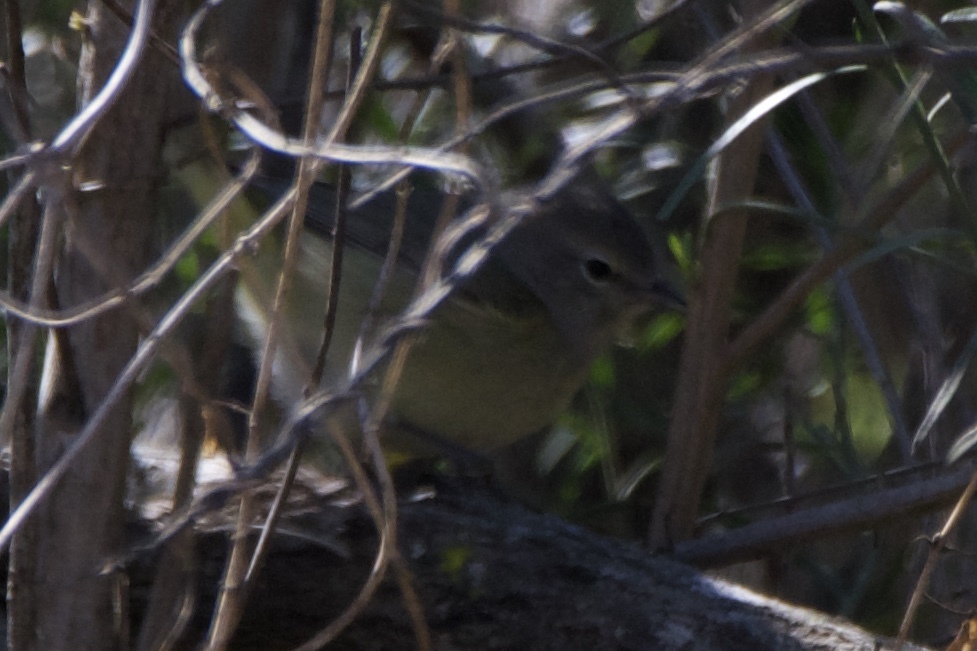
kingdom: Animalia
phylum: Chordata
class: Aves
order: Passeriformes
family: Parulidae
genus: Leiothlypis
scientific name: Leiothlypis celata
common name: Orange-crowned warbler
